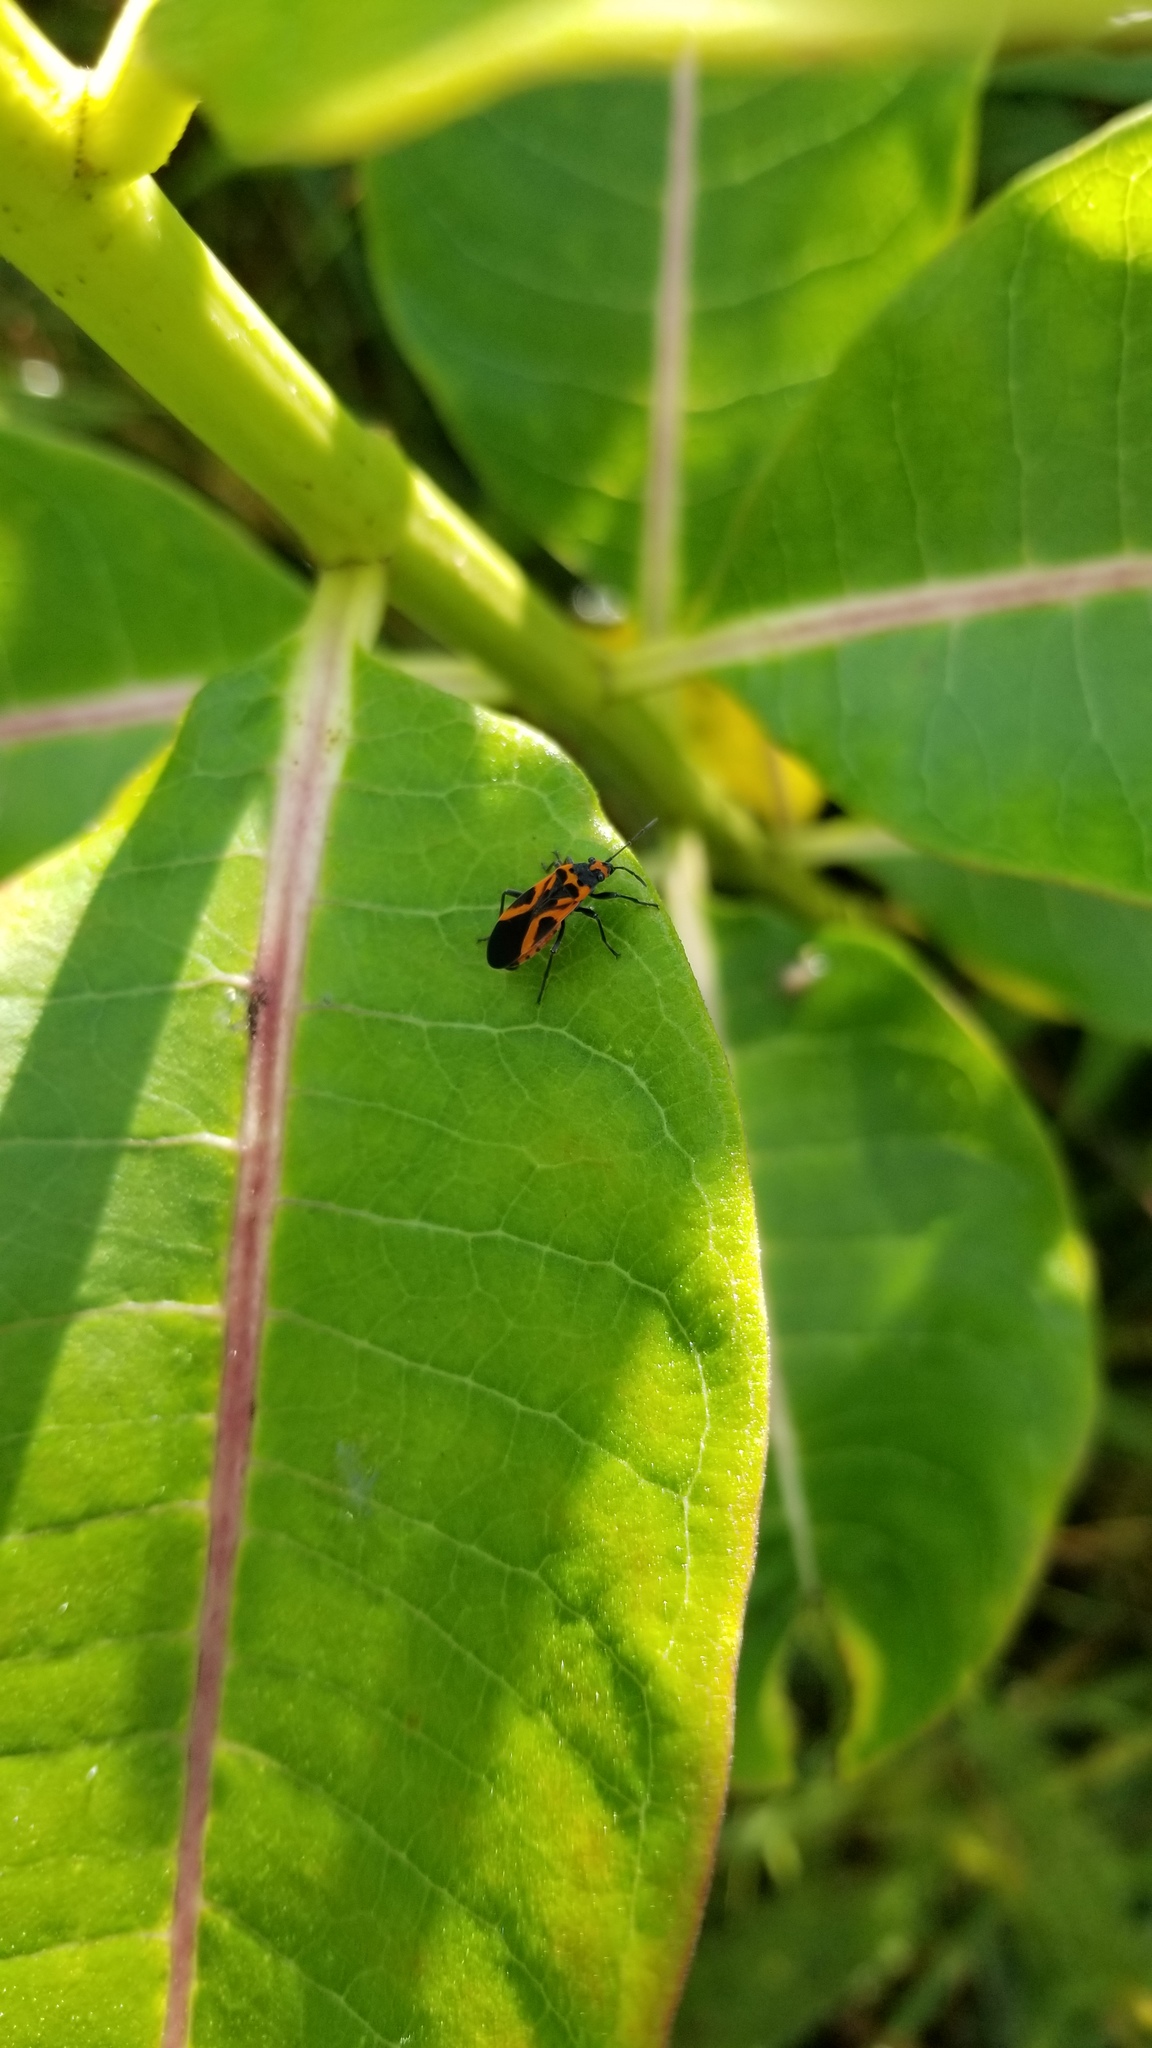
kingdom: Animalia
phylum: Arthropoda
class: Insecta
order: Hemiptera
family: Lygaeidae
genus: Lygaeus
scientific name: Lygaeus turcicus
